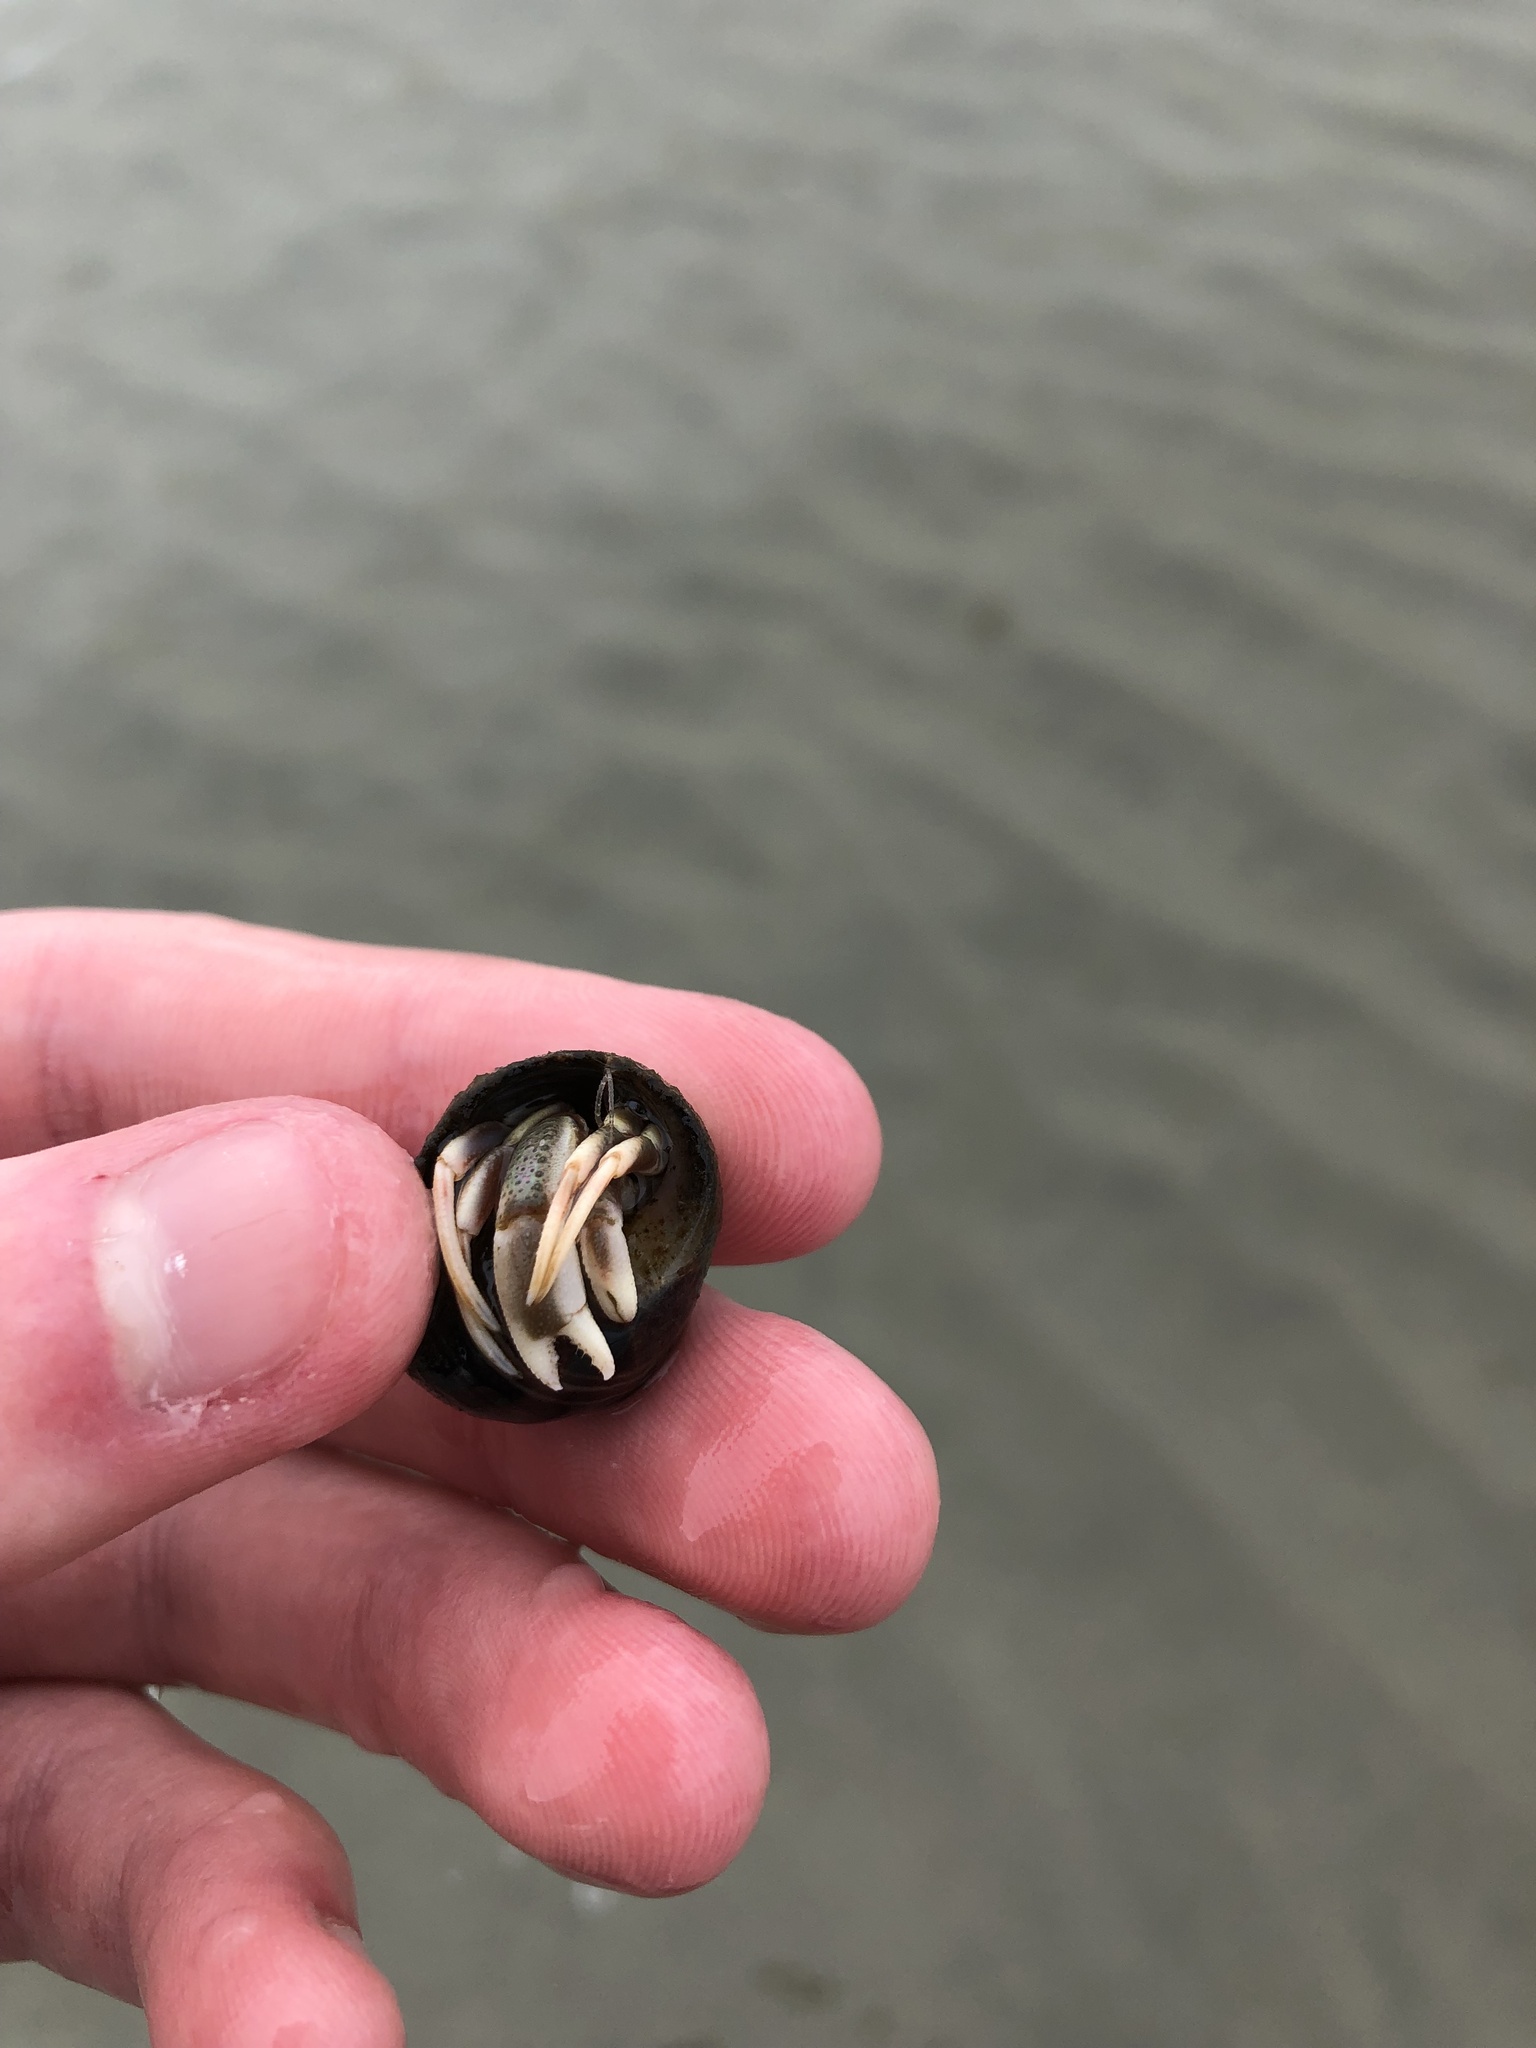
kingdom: Animalia
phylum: Arthropoda
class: Malacostraca
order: Decapoda
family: Paguridae
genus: Pagurus
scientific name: Pagurus longicarpus
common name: Long-armed hermit crab
